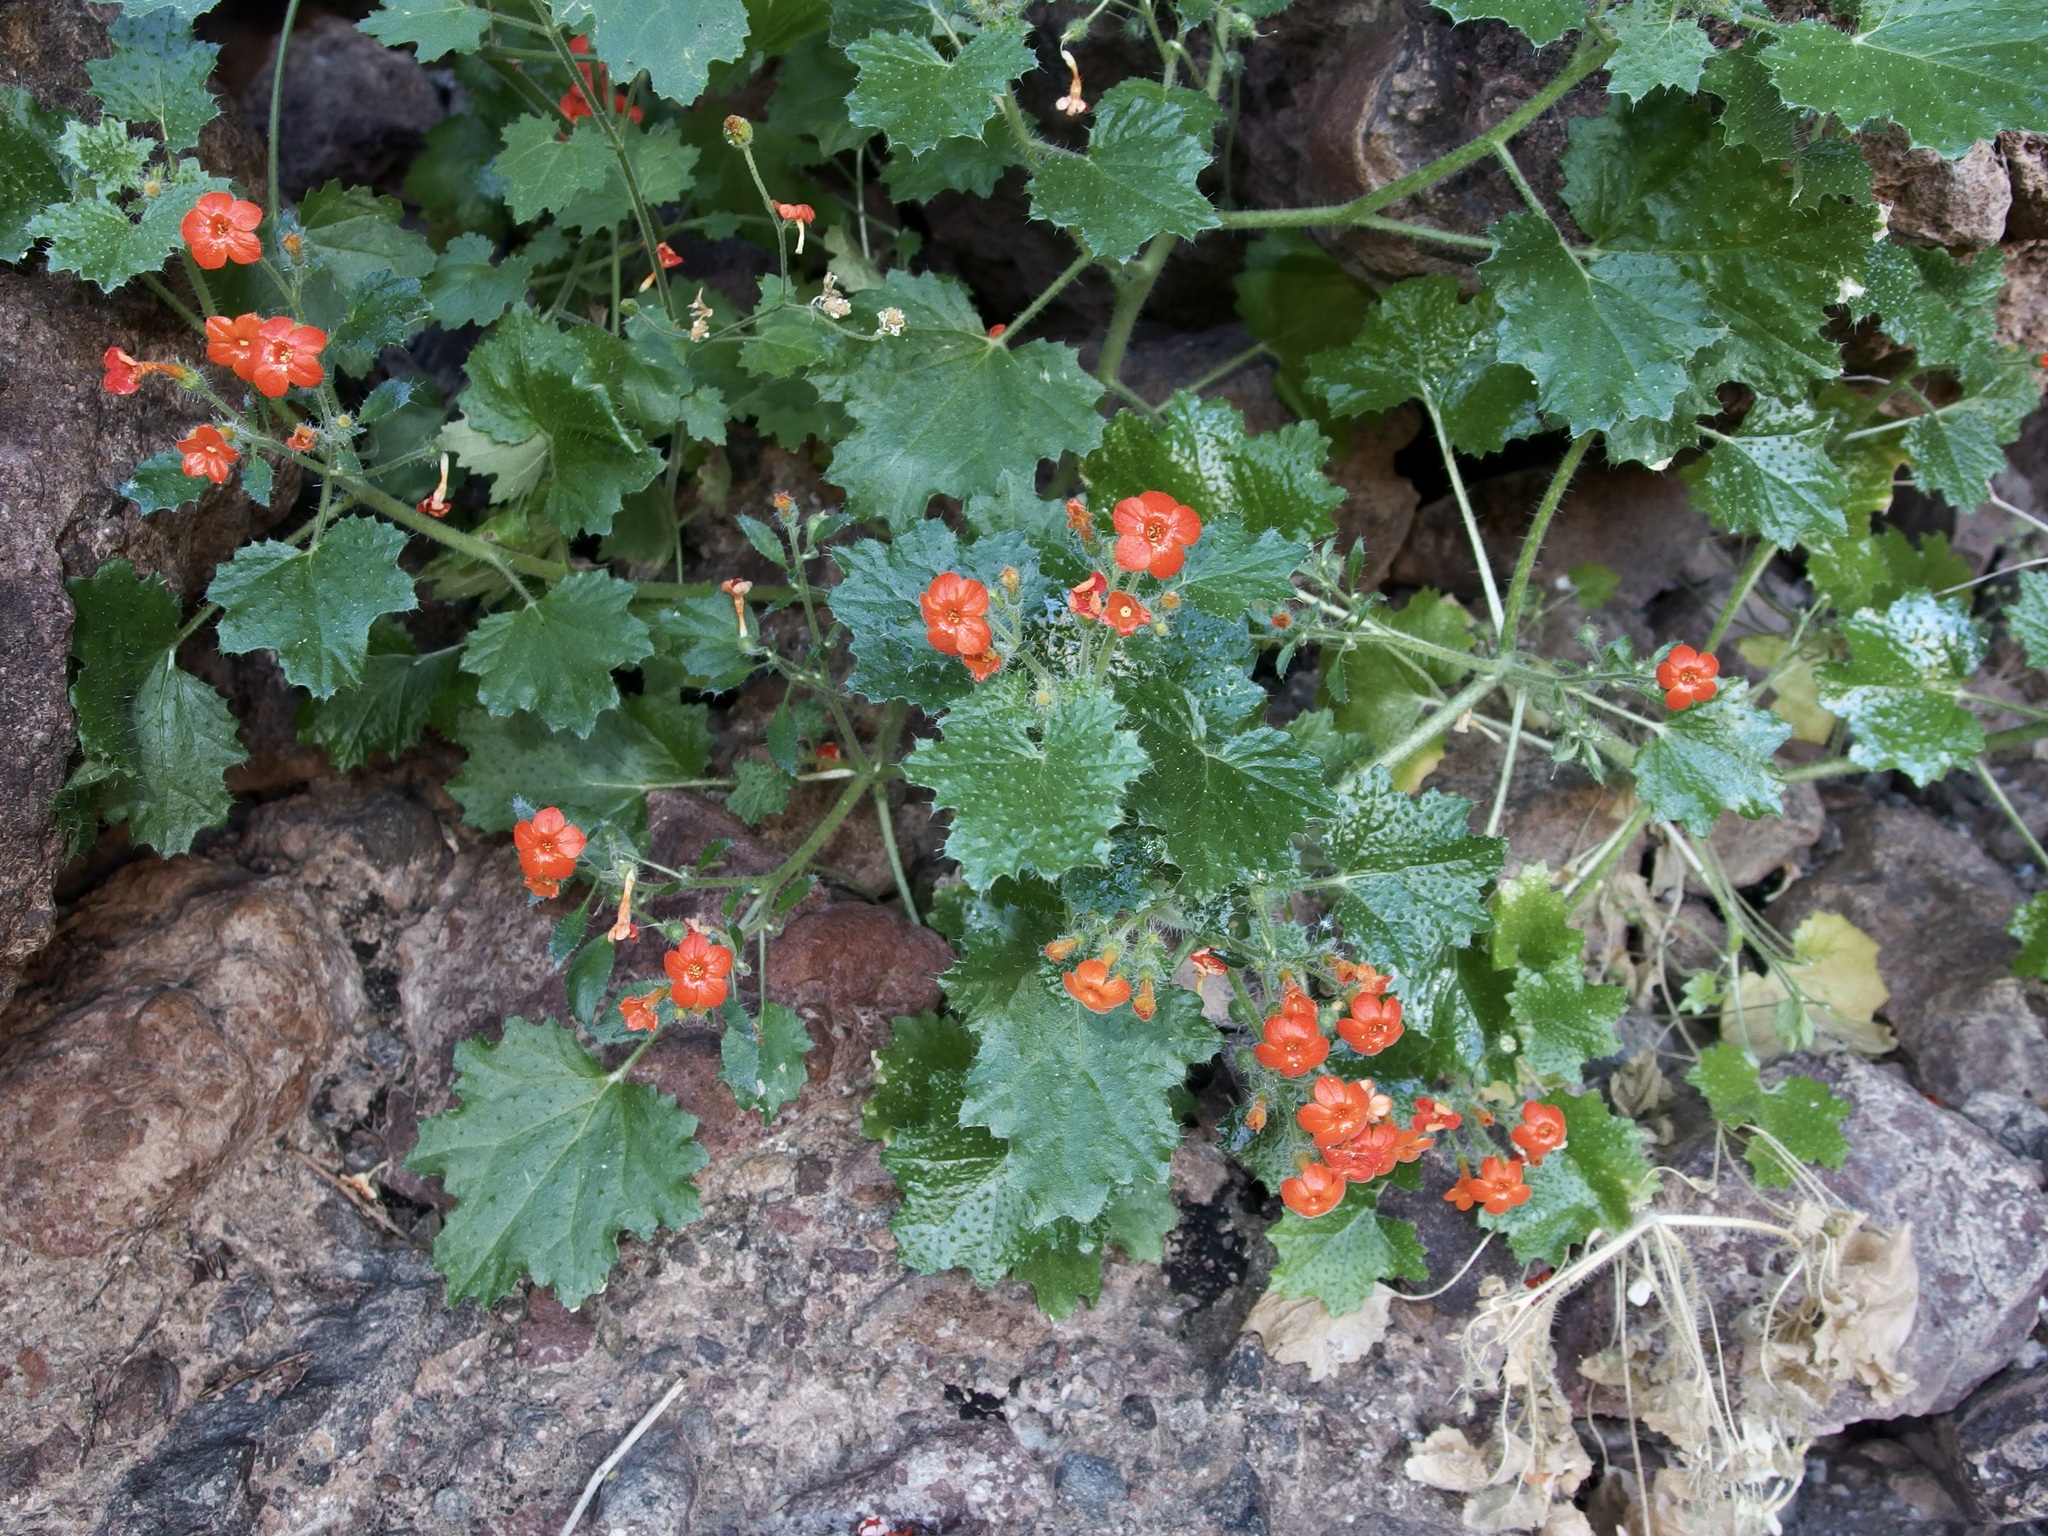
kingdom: Plantae
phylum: Tracheophyta
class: Magnoliopsida
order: Cornales
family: Loasaceae
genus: Eucnide
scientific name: Eucnide aurea
